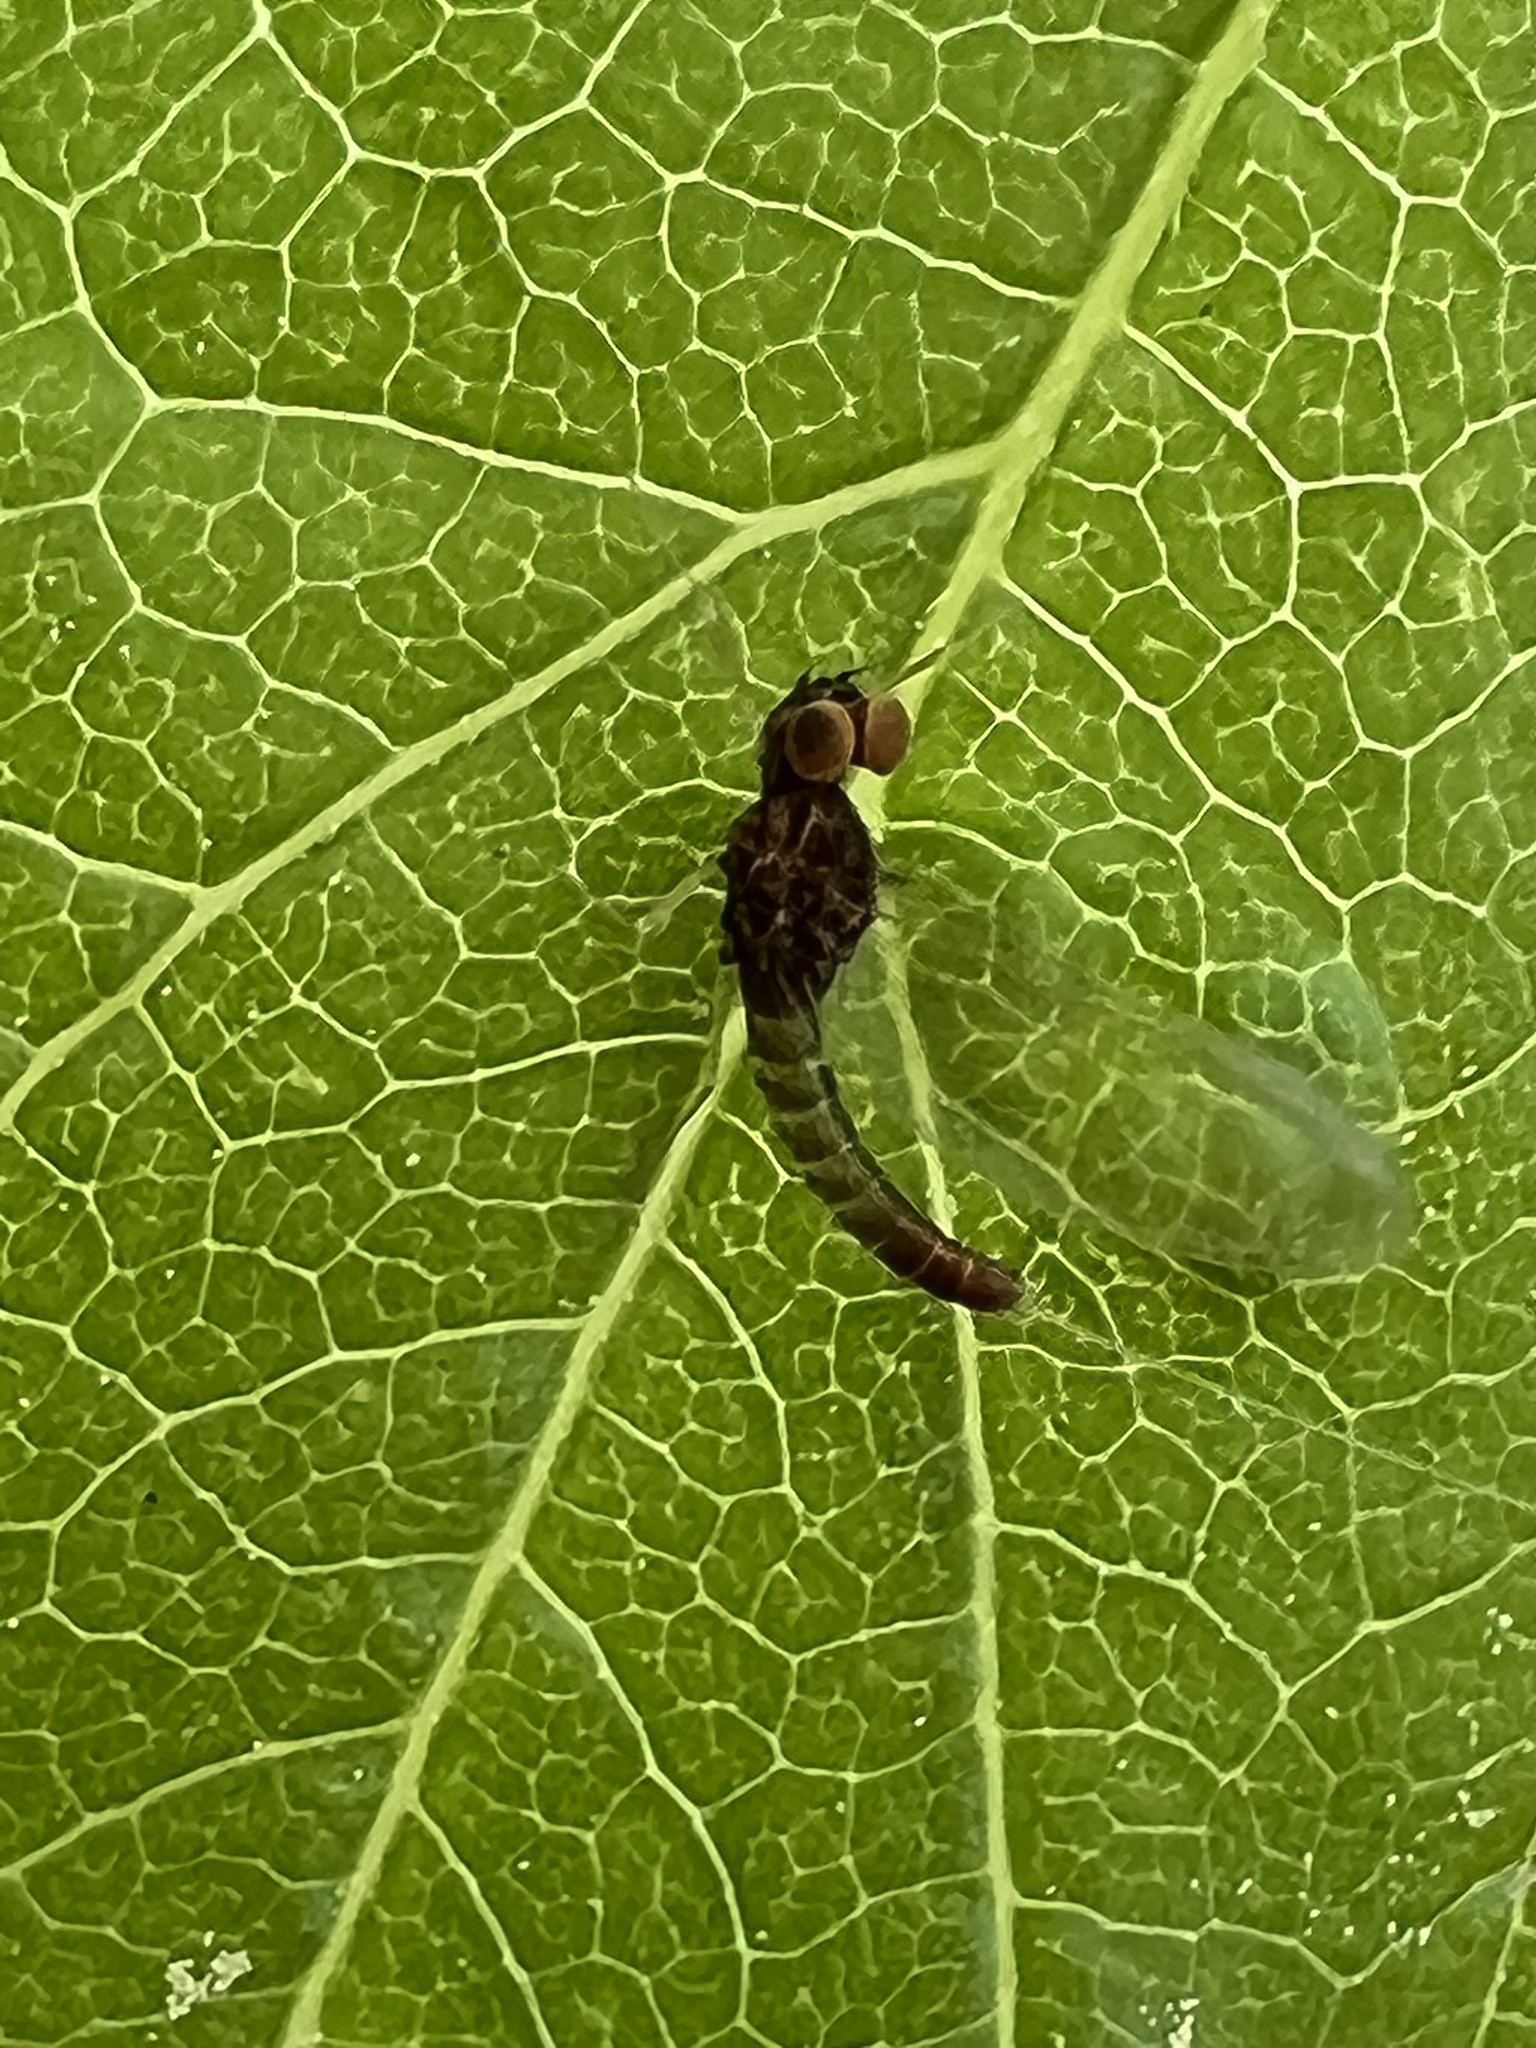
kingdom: Animalia
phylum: Arthropoda
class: Insecta
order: Ephemeroptera
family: Baetidae
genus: Baetis
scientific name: Baetis flavistriga
